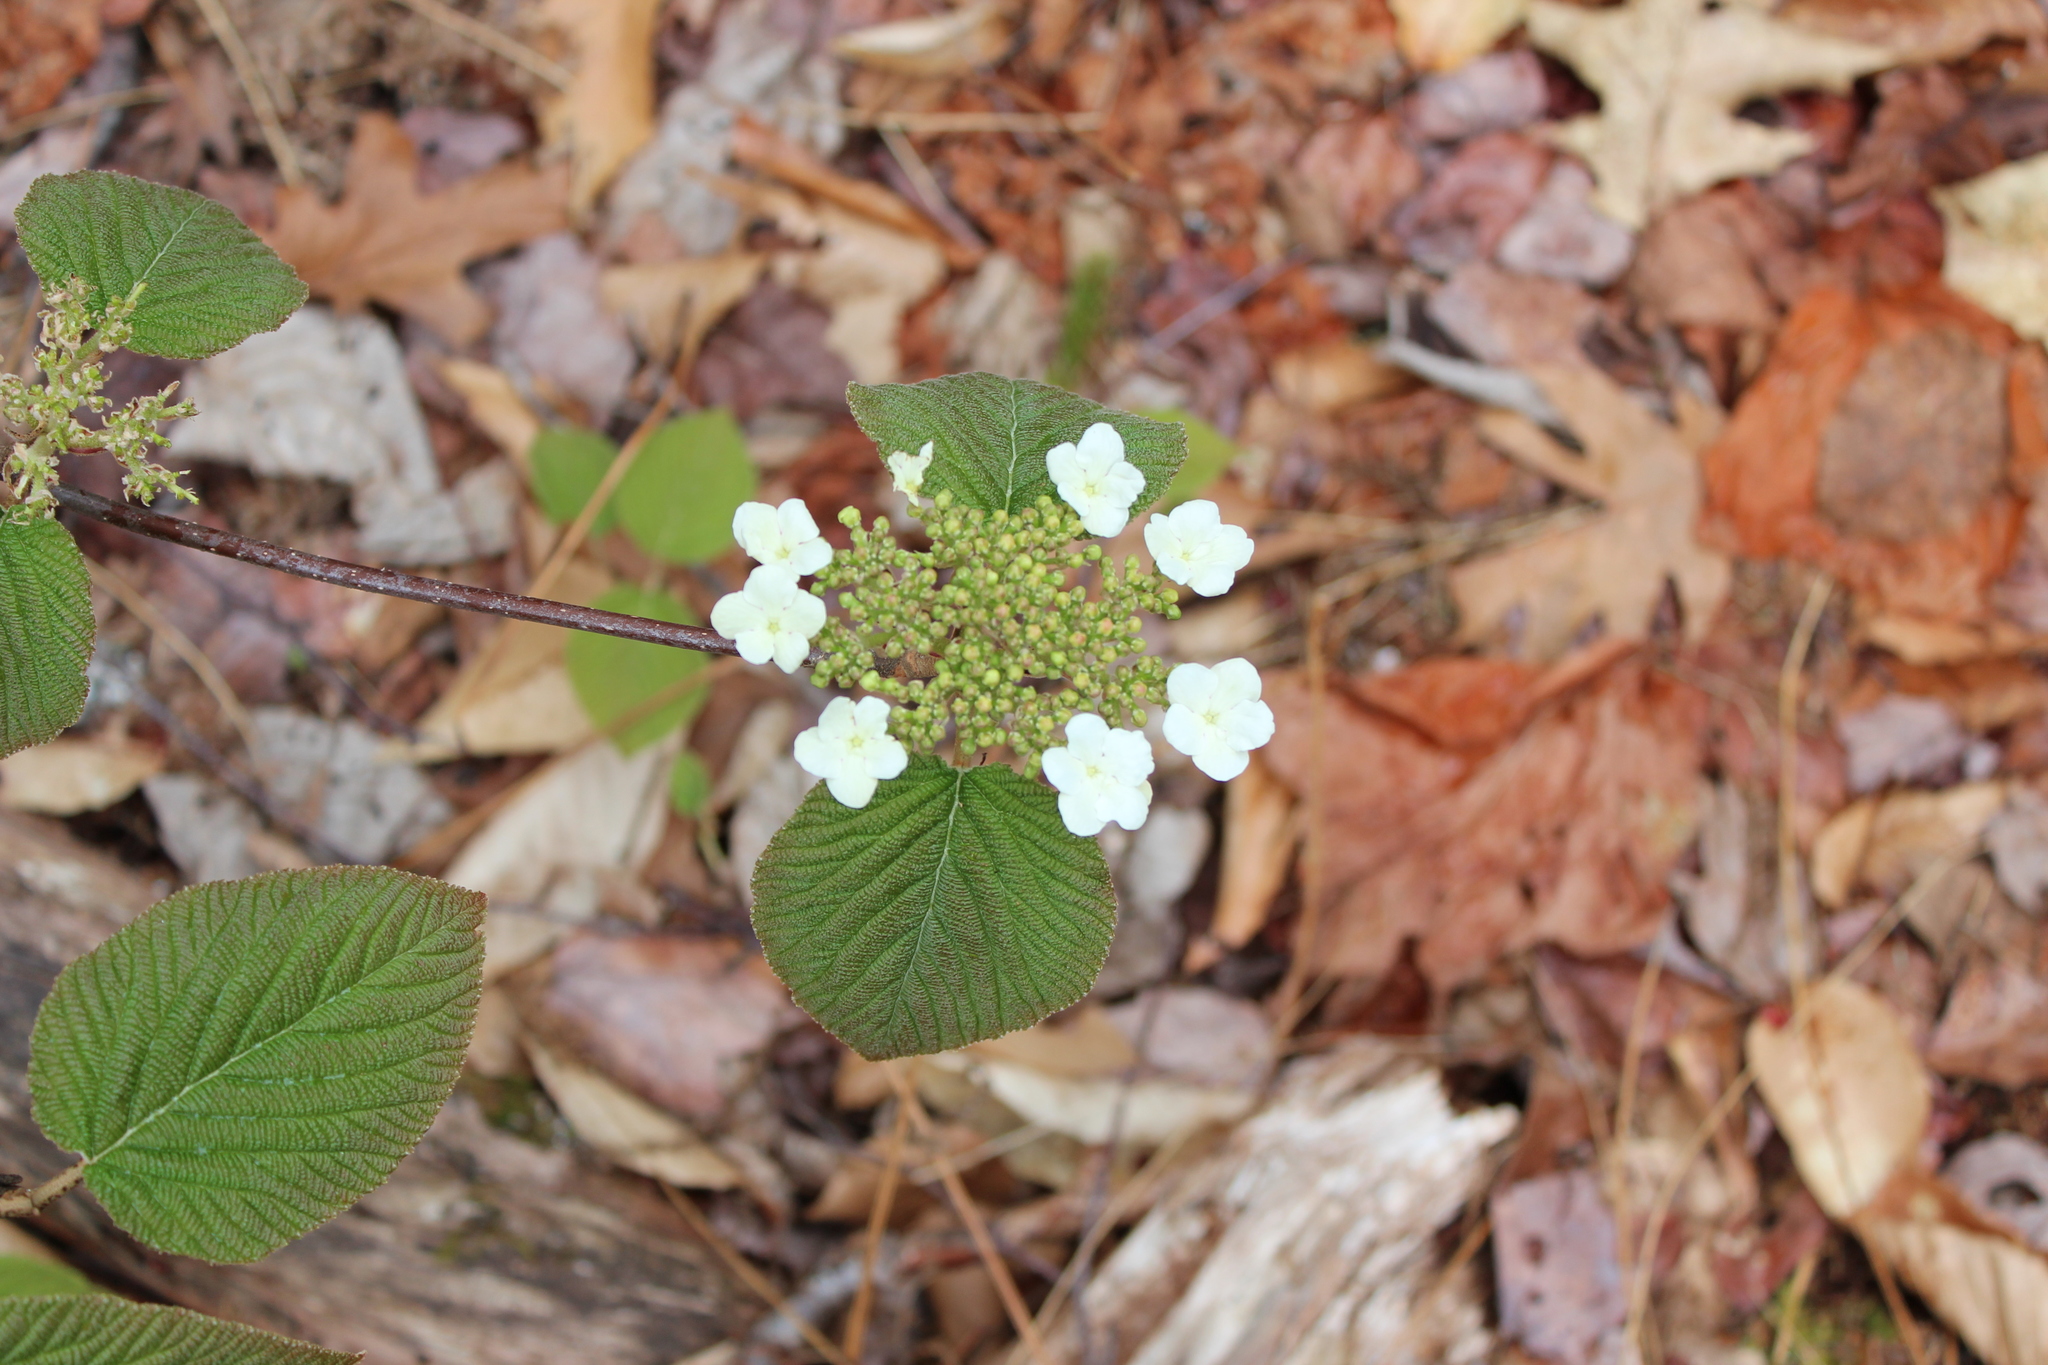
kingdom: Plantae
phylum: Tracheophyta
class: Magnoliopsida
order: Dipsacales
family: Viburnaceae
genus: Viburnum
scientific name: Viburnum lantanoides
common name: Hobblebush
